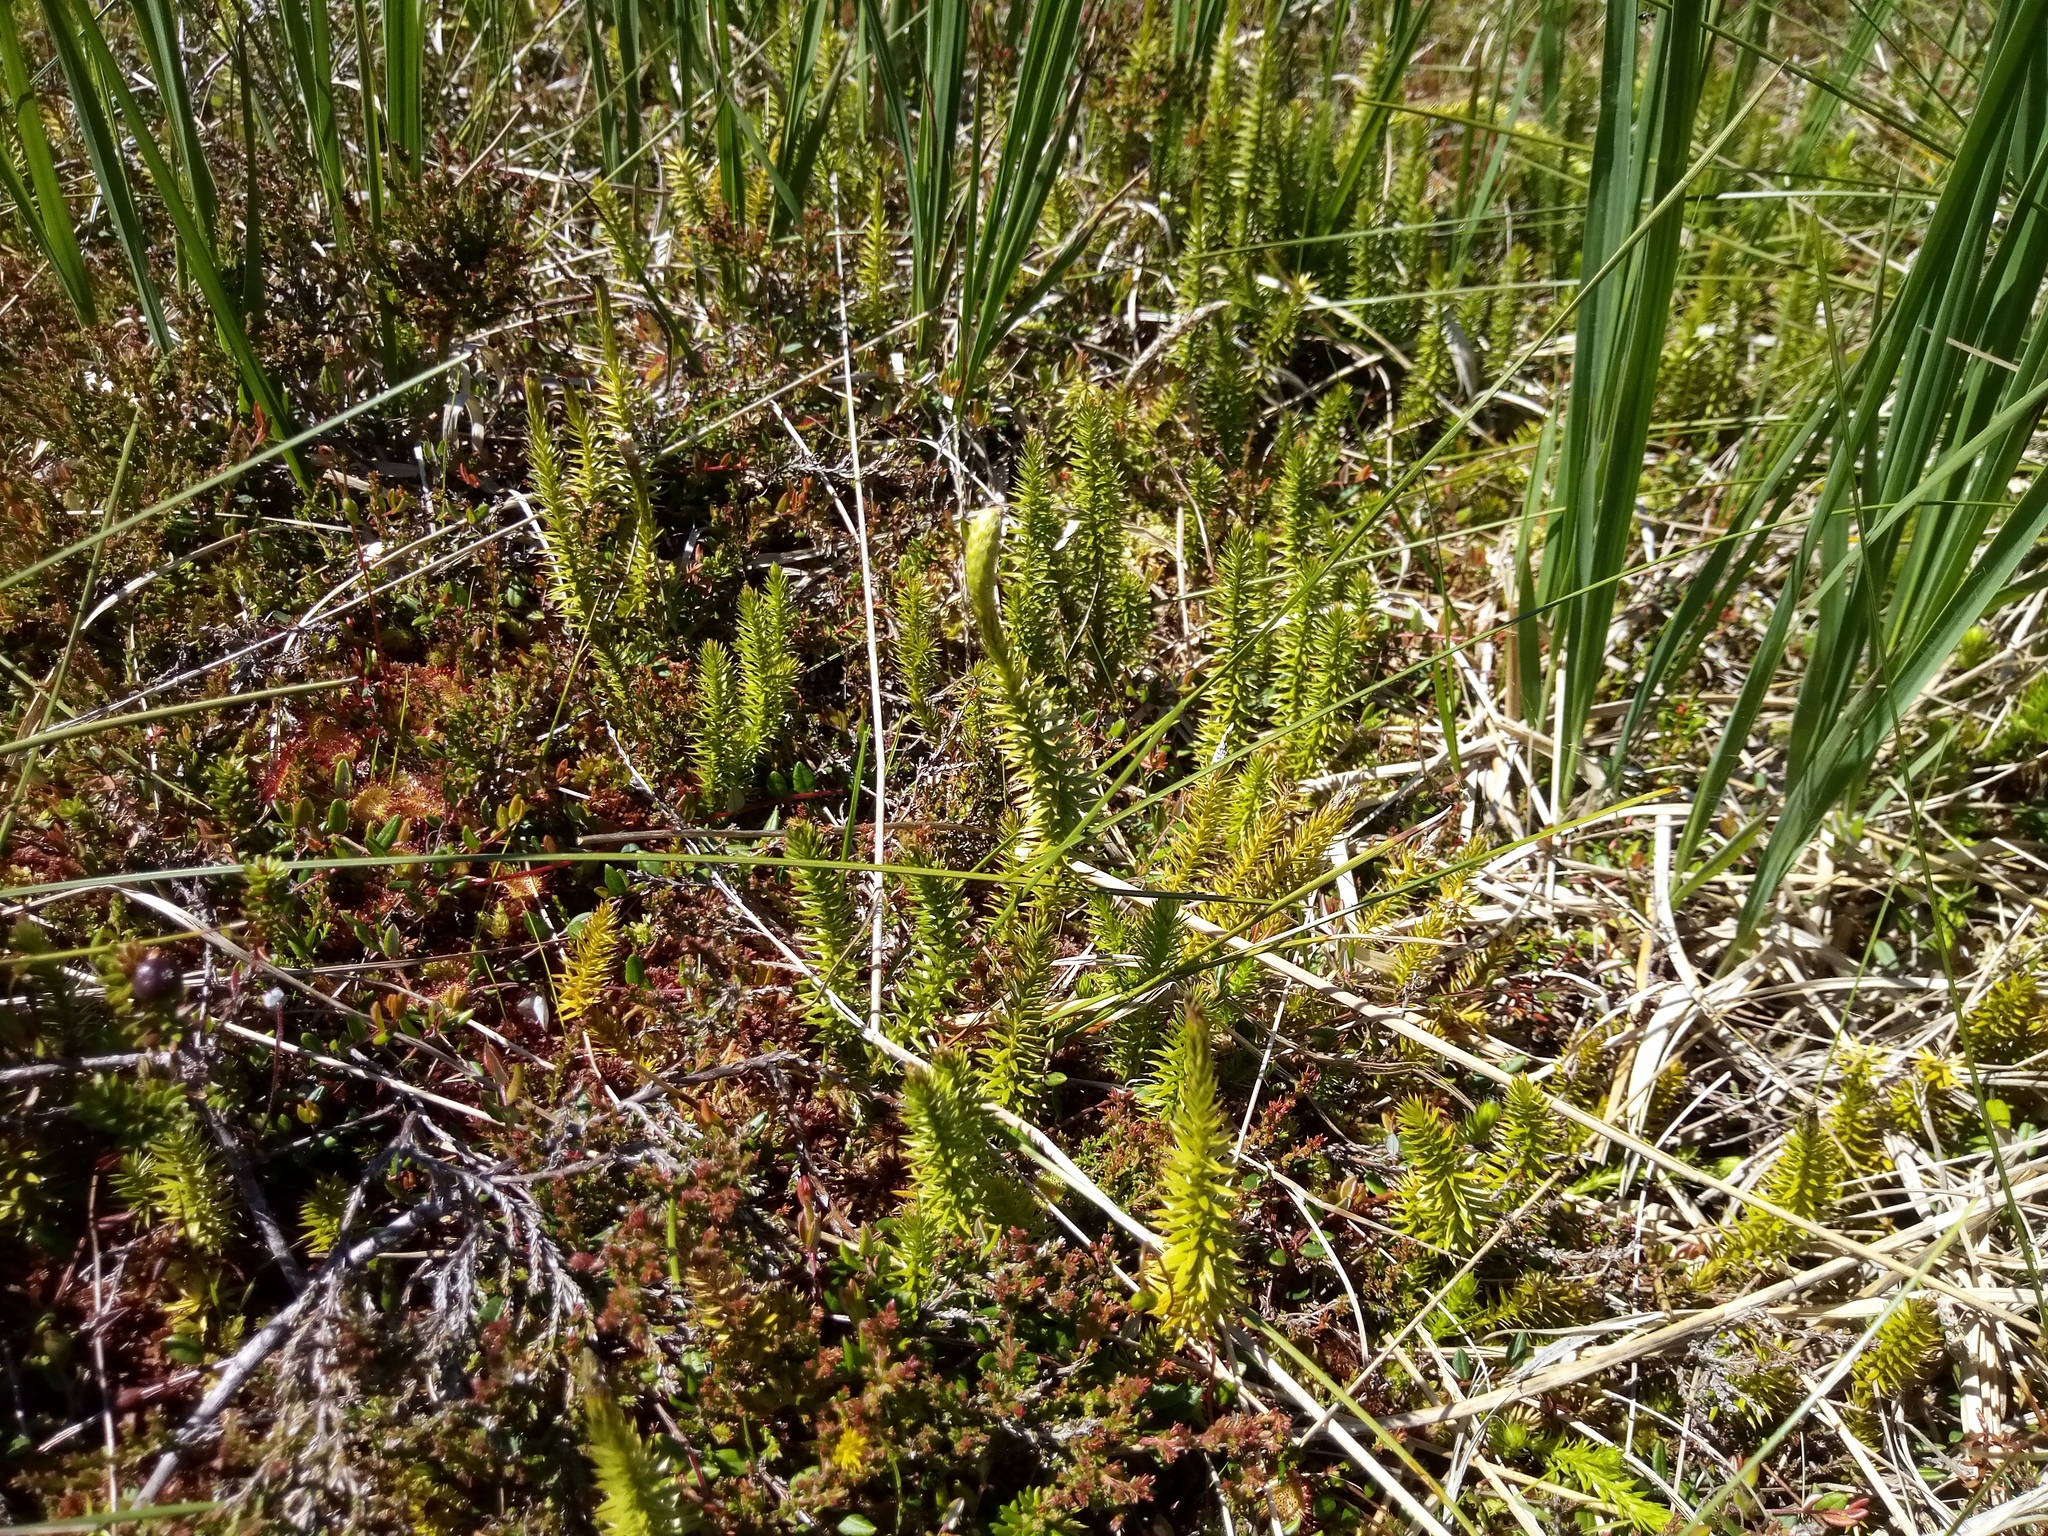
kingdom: Plantae
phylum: Tracheophyta
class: Lycopodiopsida
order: Lycopodiales
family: Lycopodiaceae
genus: Spinulum
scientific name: Spinulum annotinum
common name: Interrupted club-moss
